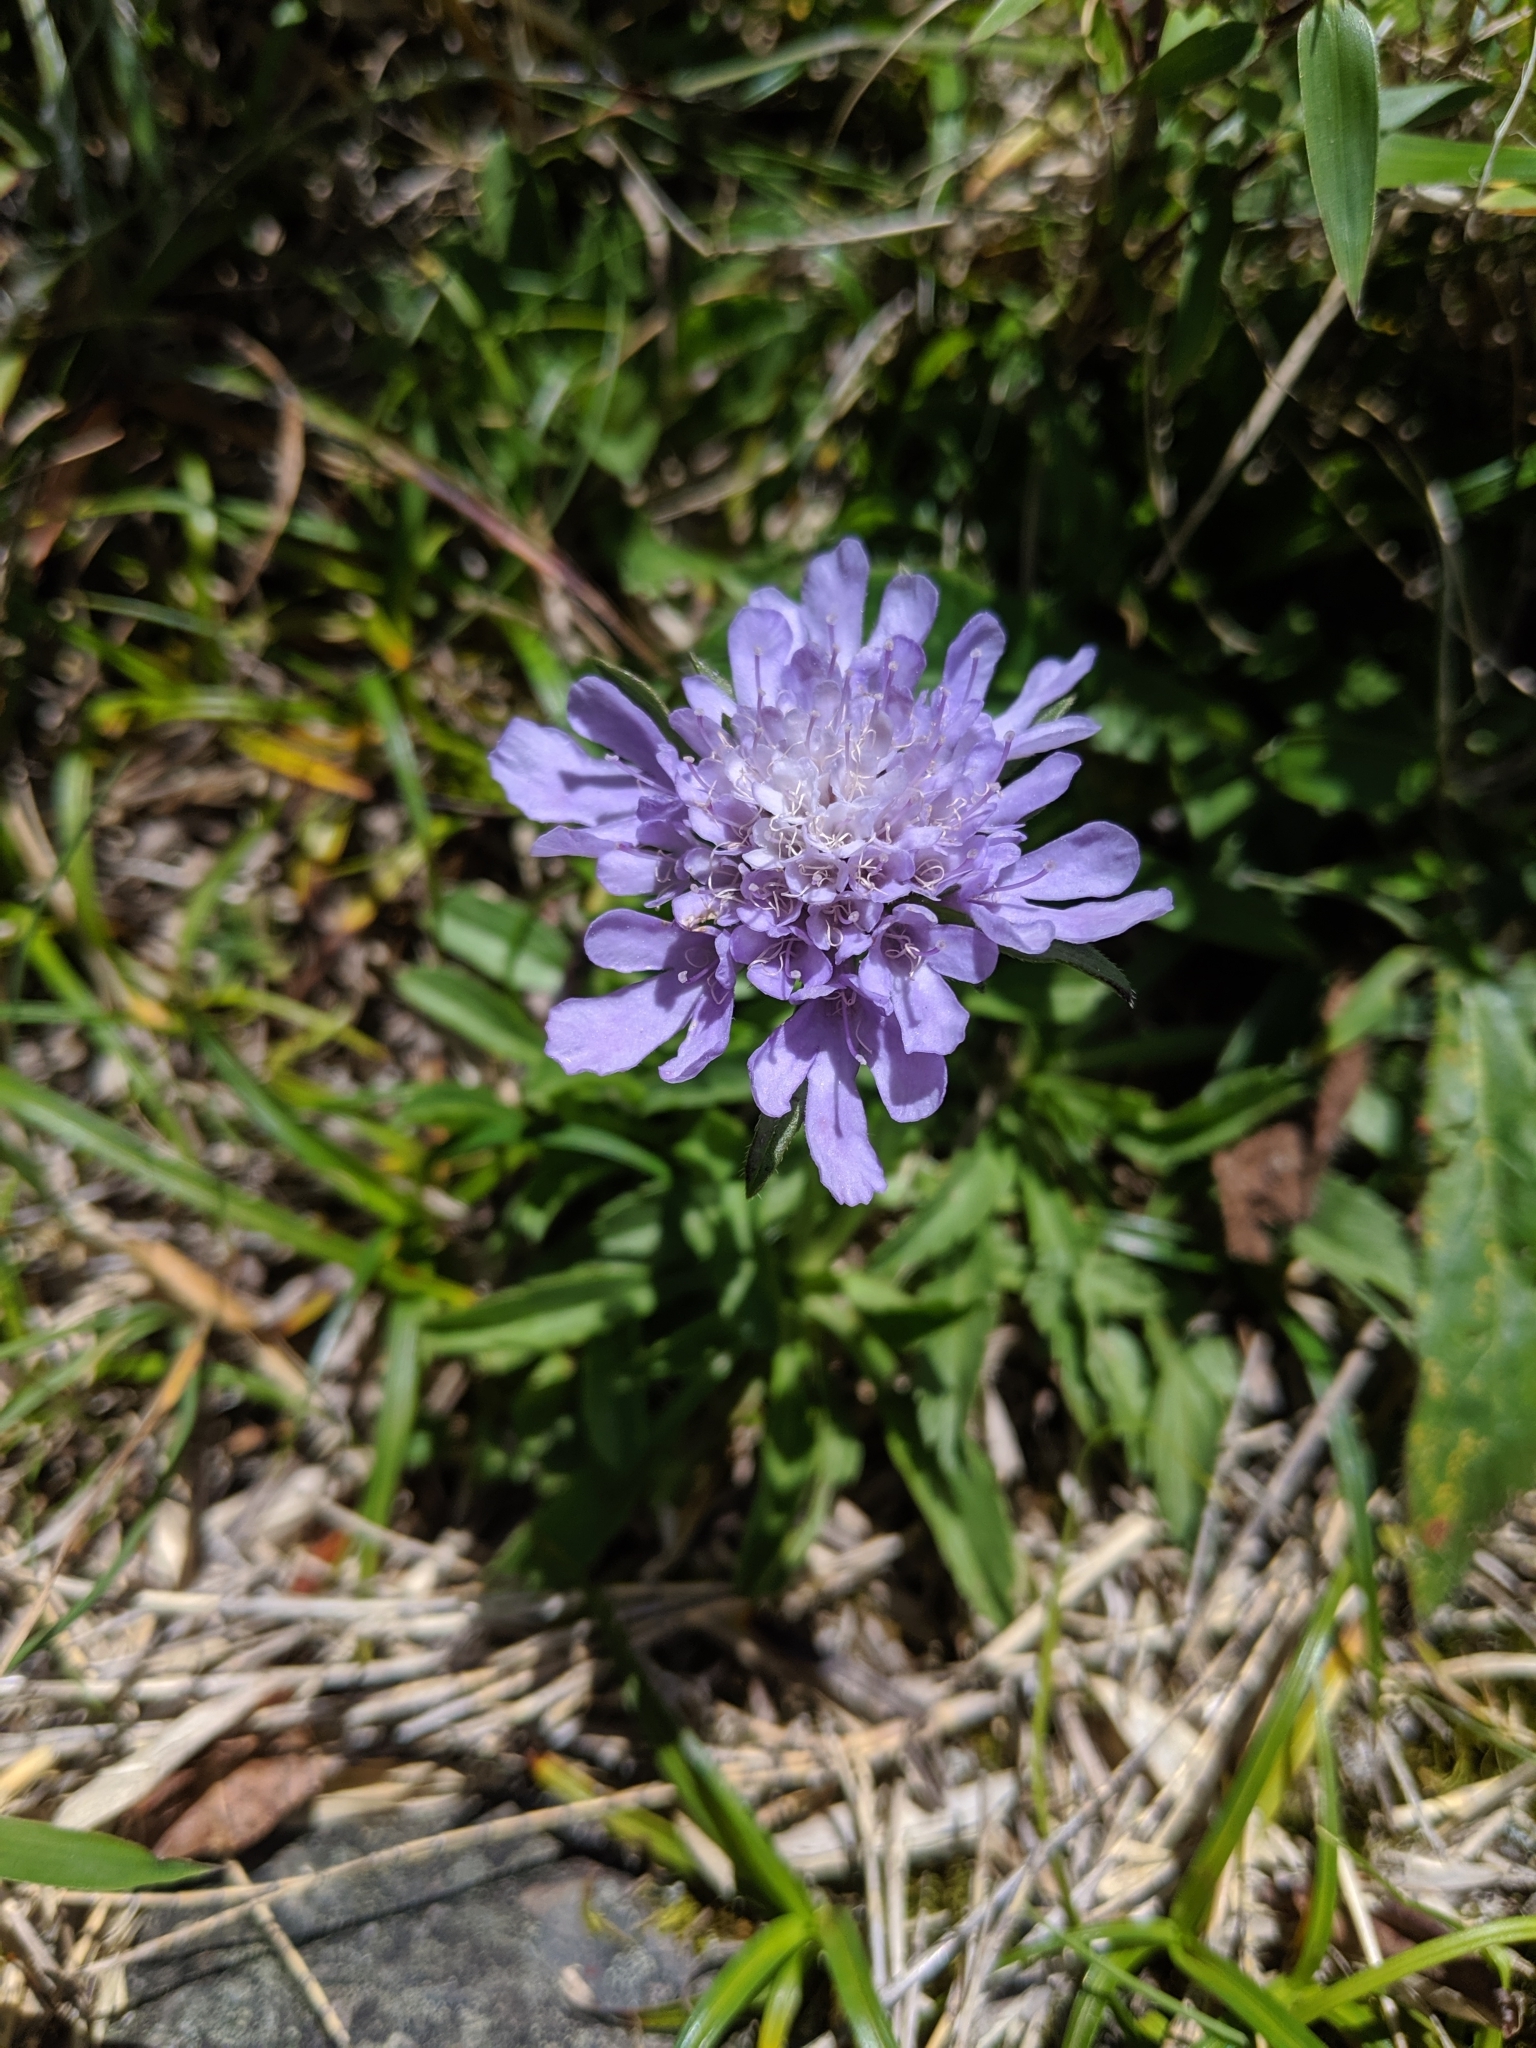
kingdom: Plantae
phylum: Tracheophyta
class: Magnoliopsida
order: Dipsacales
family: Caprifoliaceae
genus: Scabiosa
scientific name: Scabiosa lacerifolia
